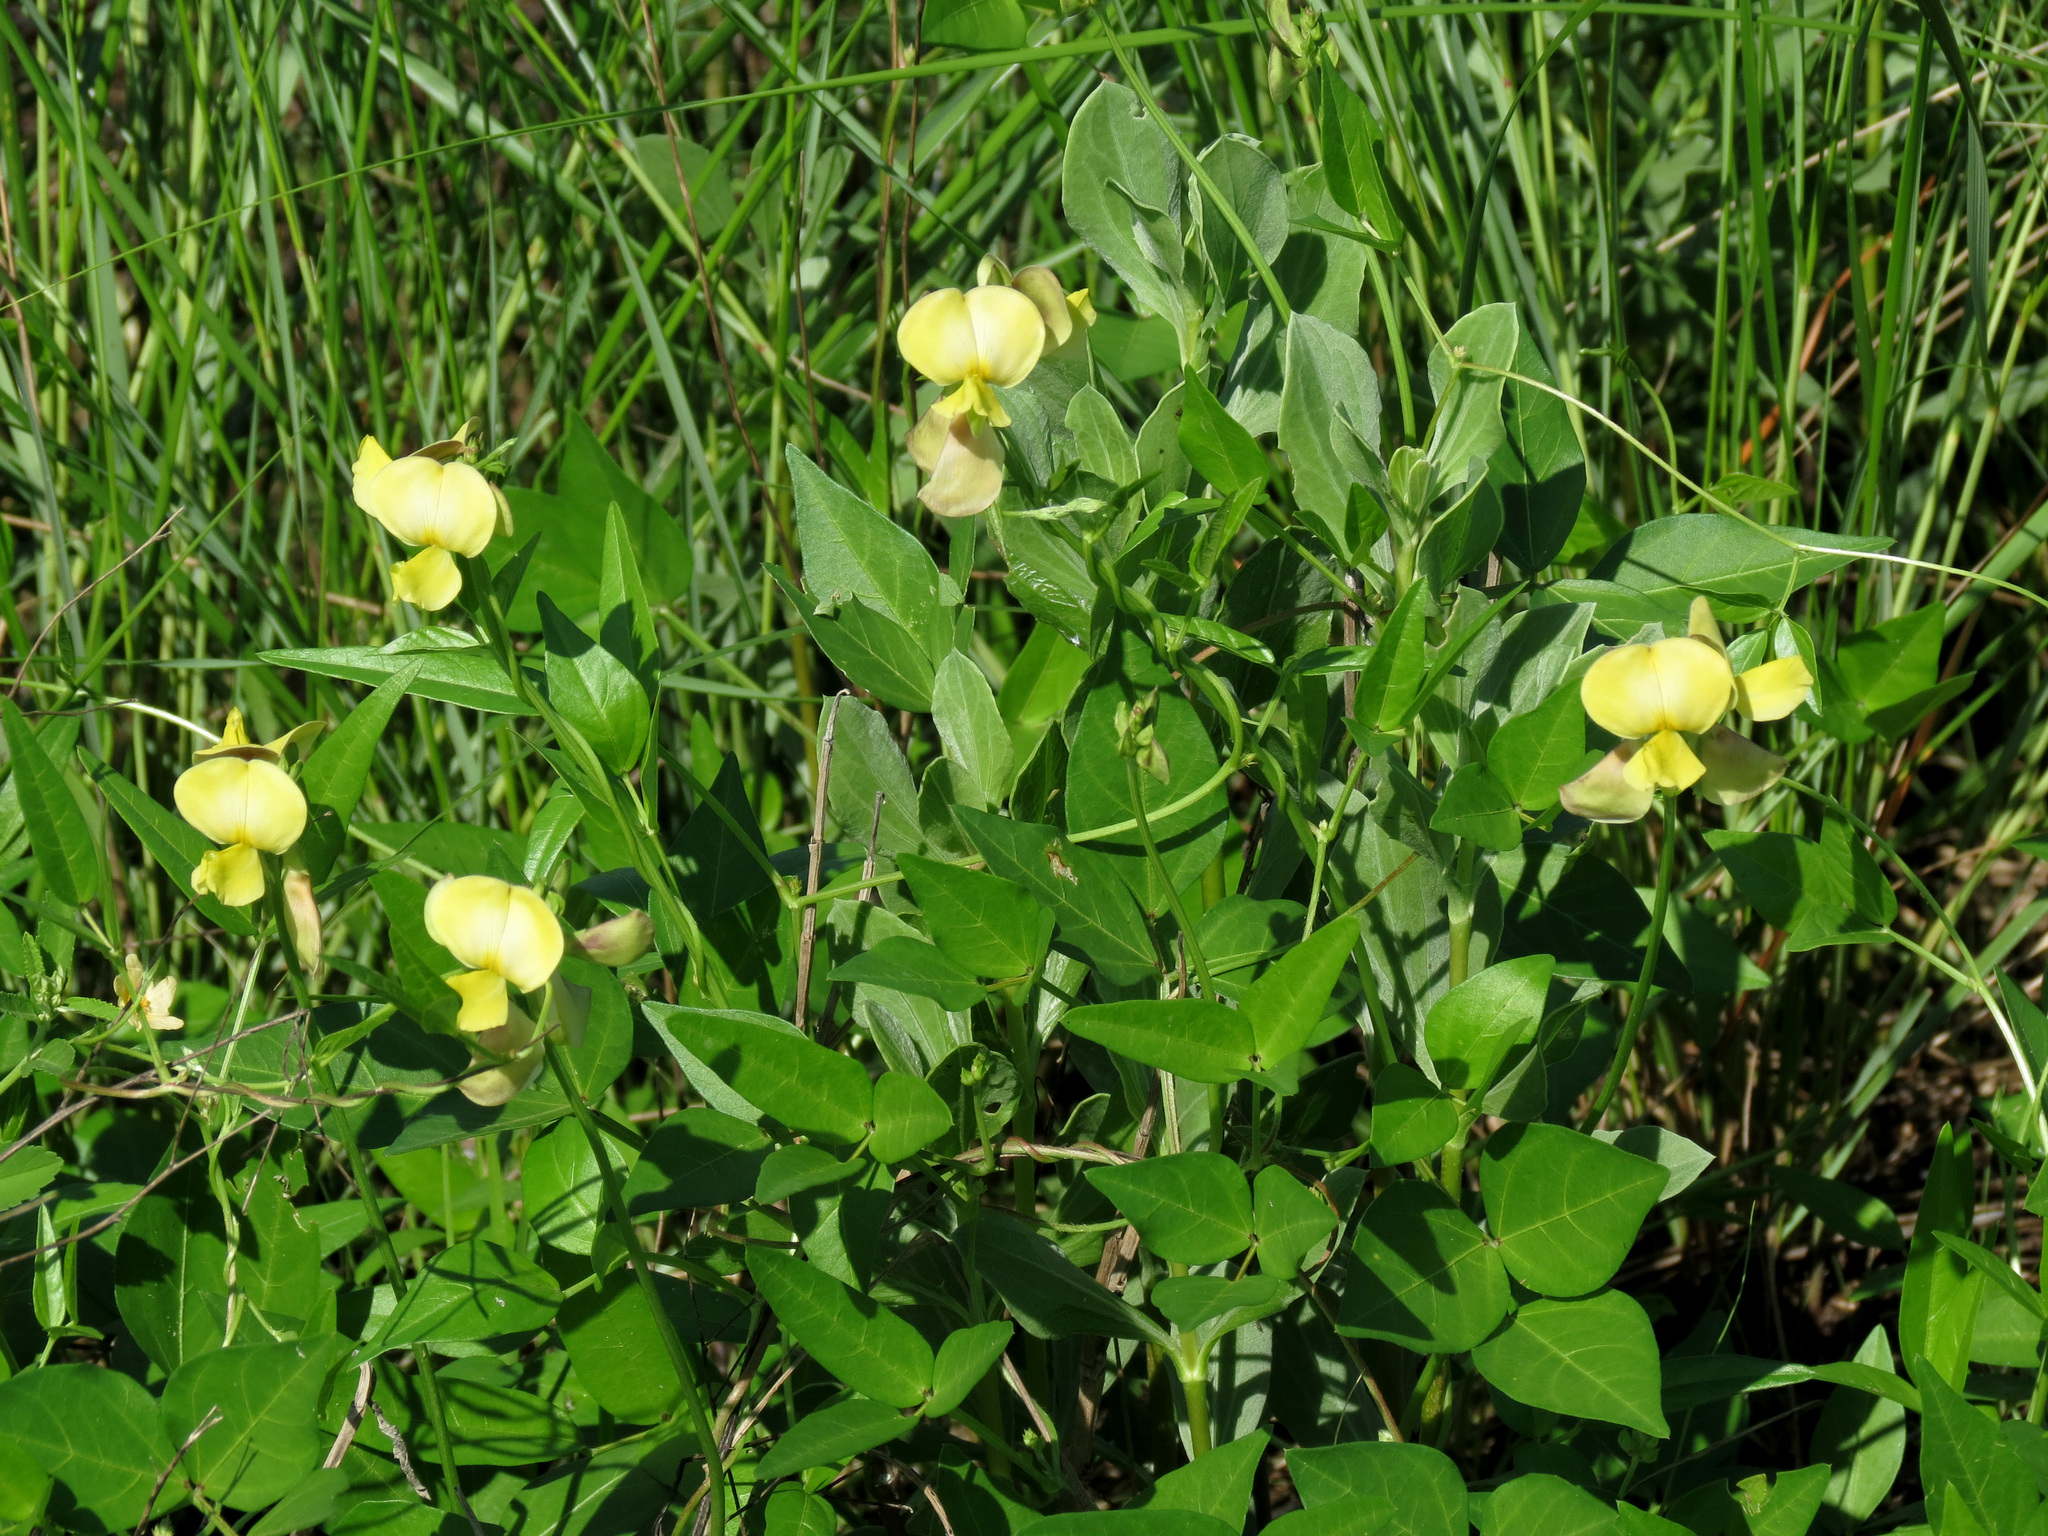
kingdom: Plantae
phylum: Tracheophyta
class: Magnoliopsida
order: Fabales
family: Fabaceae
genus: Vigna
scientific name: Vigna luteola
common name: Hairypod cowpea
